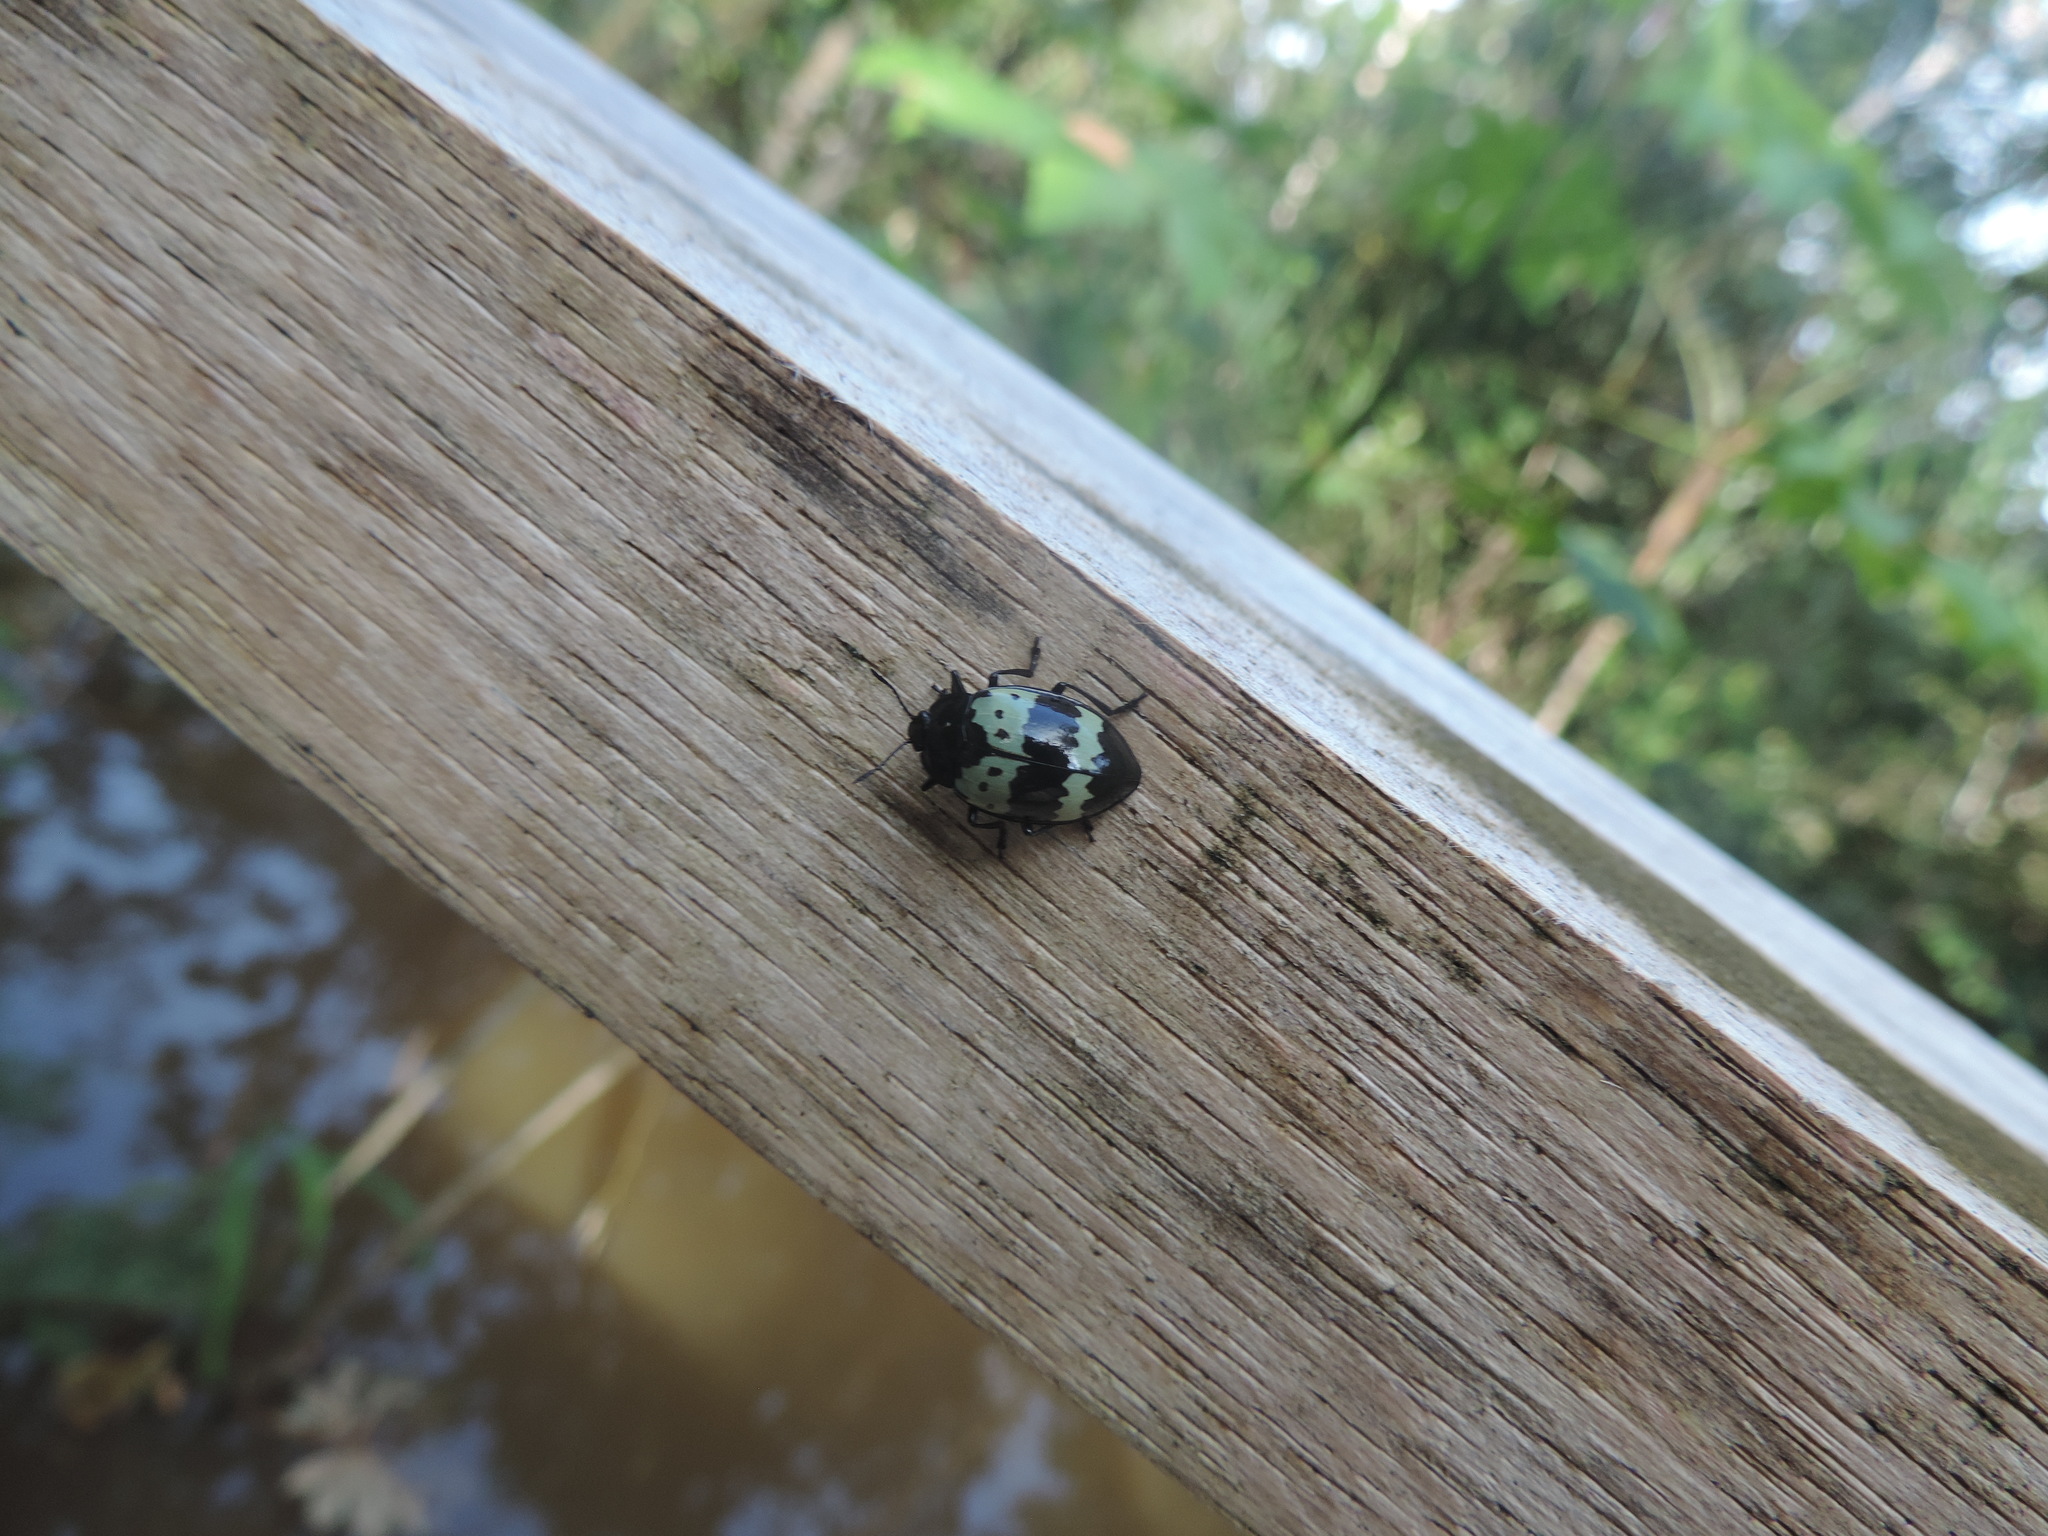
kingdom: Animalia
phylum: Arthropoda
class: Insecta
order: Coleoptera
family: Erotylidae
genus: Barytopus
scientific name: Barytopus
